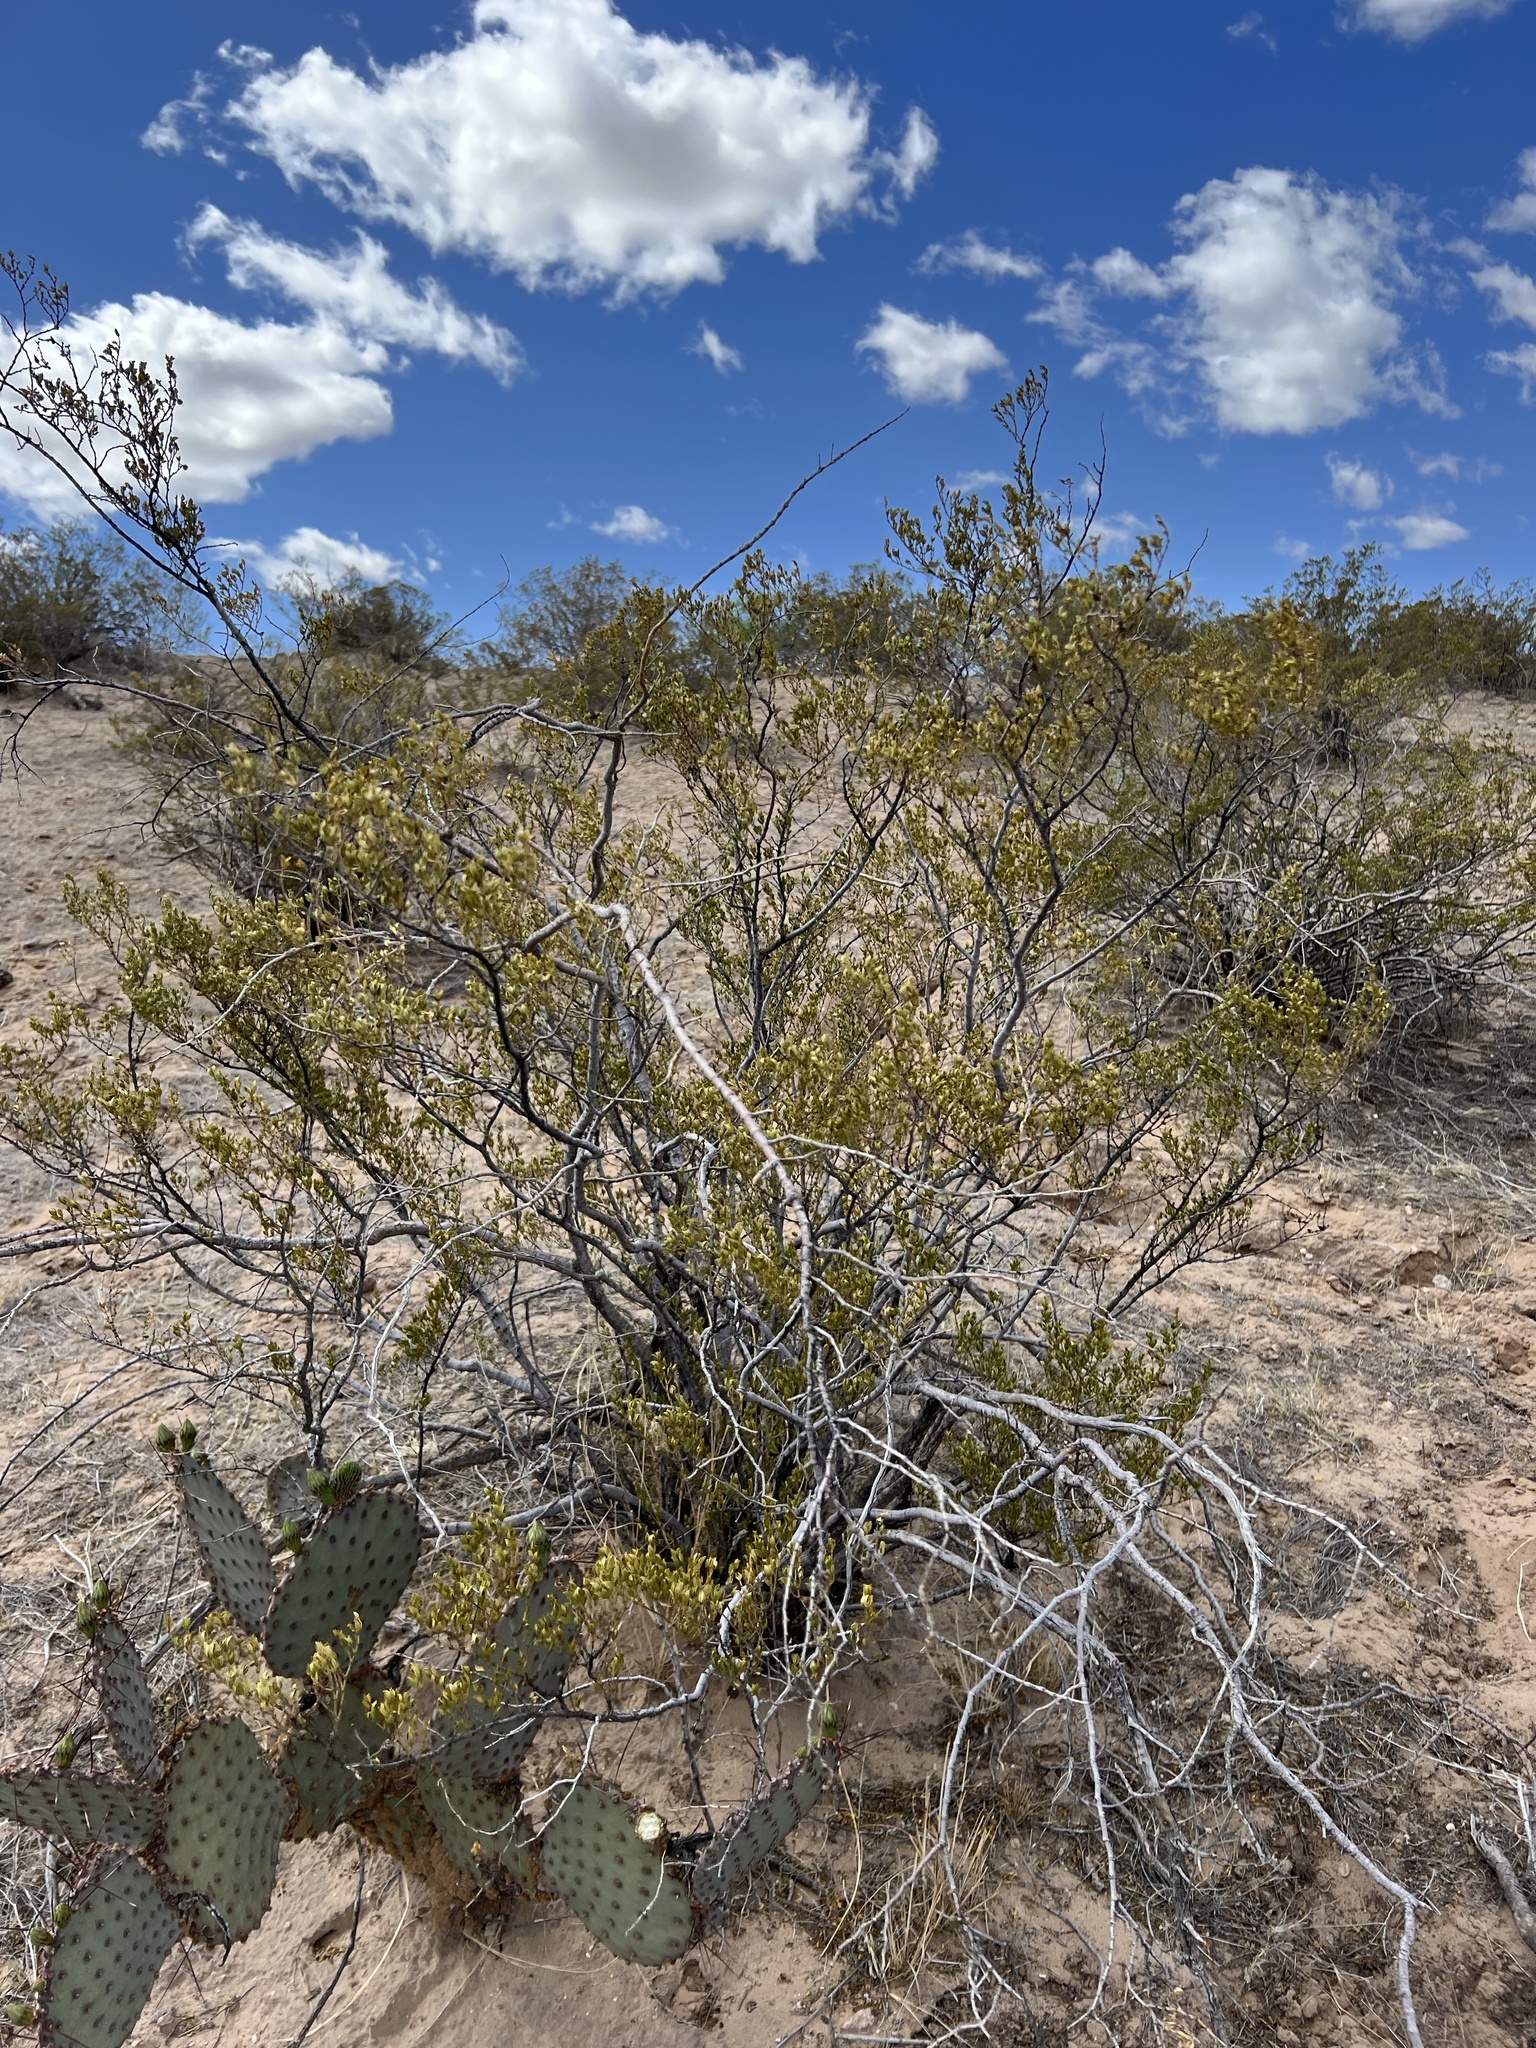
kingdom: Plantae
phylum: Tracheophyta
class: Magnoliopsida
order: Zygophyllales
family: Zygophyllaceae
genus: Larrea
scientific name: Larrea tridentata
